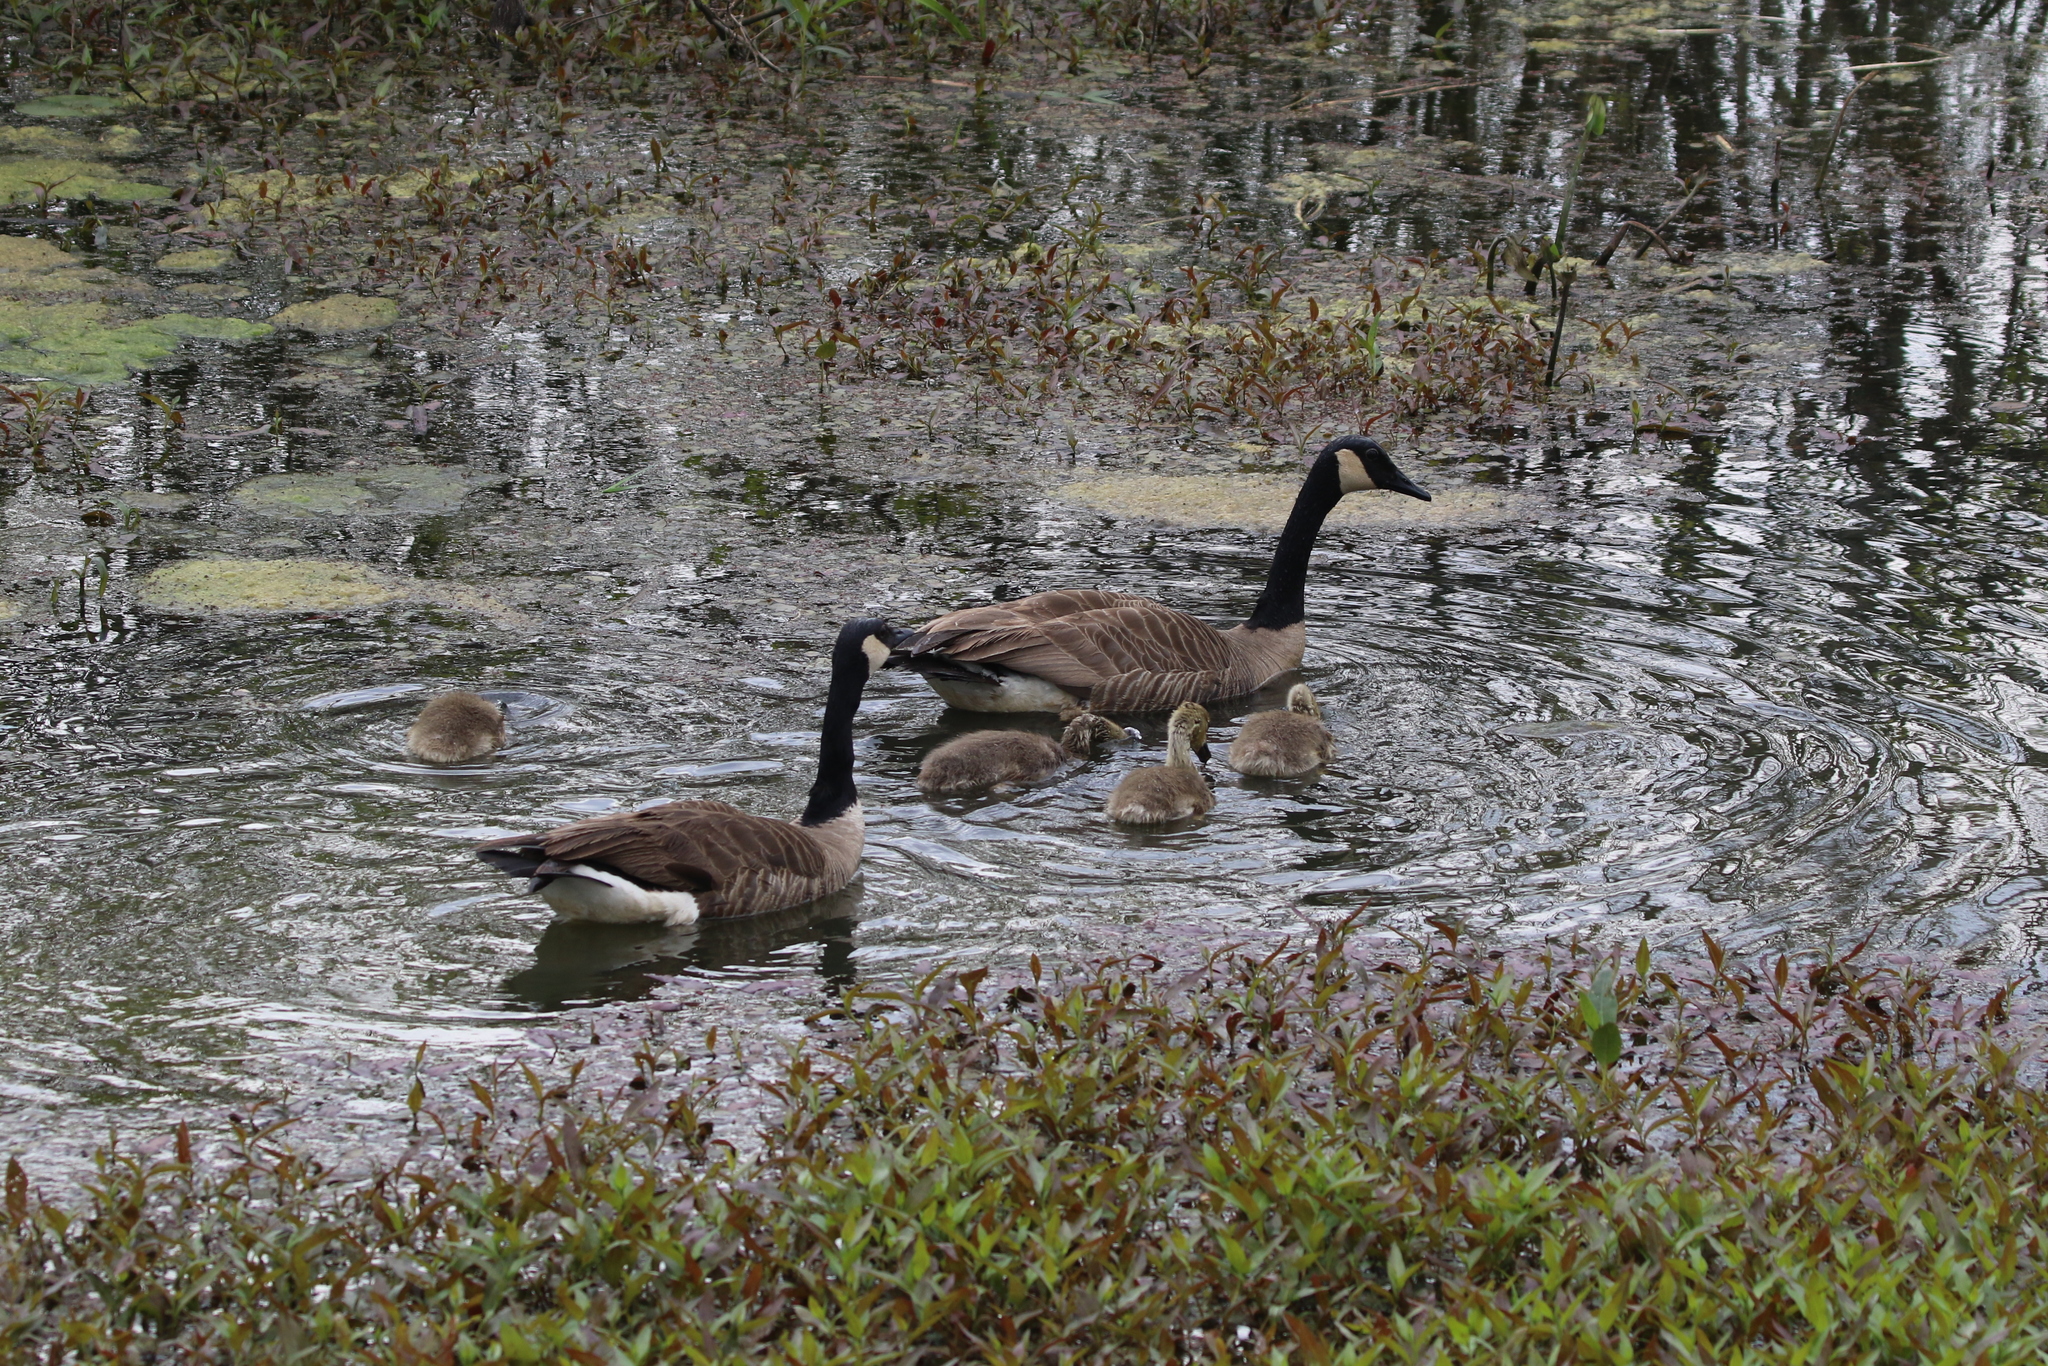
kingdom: Animalia
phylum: Chordata
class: Aves
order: Anseriformes
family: Anatidae
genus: Branta
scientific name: Branta canadensis
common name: Canada goose
